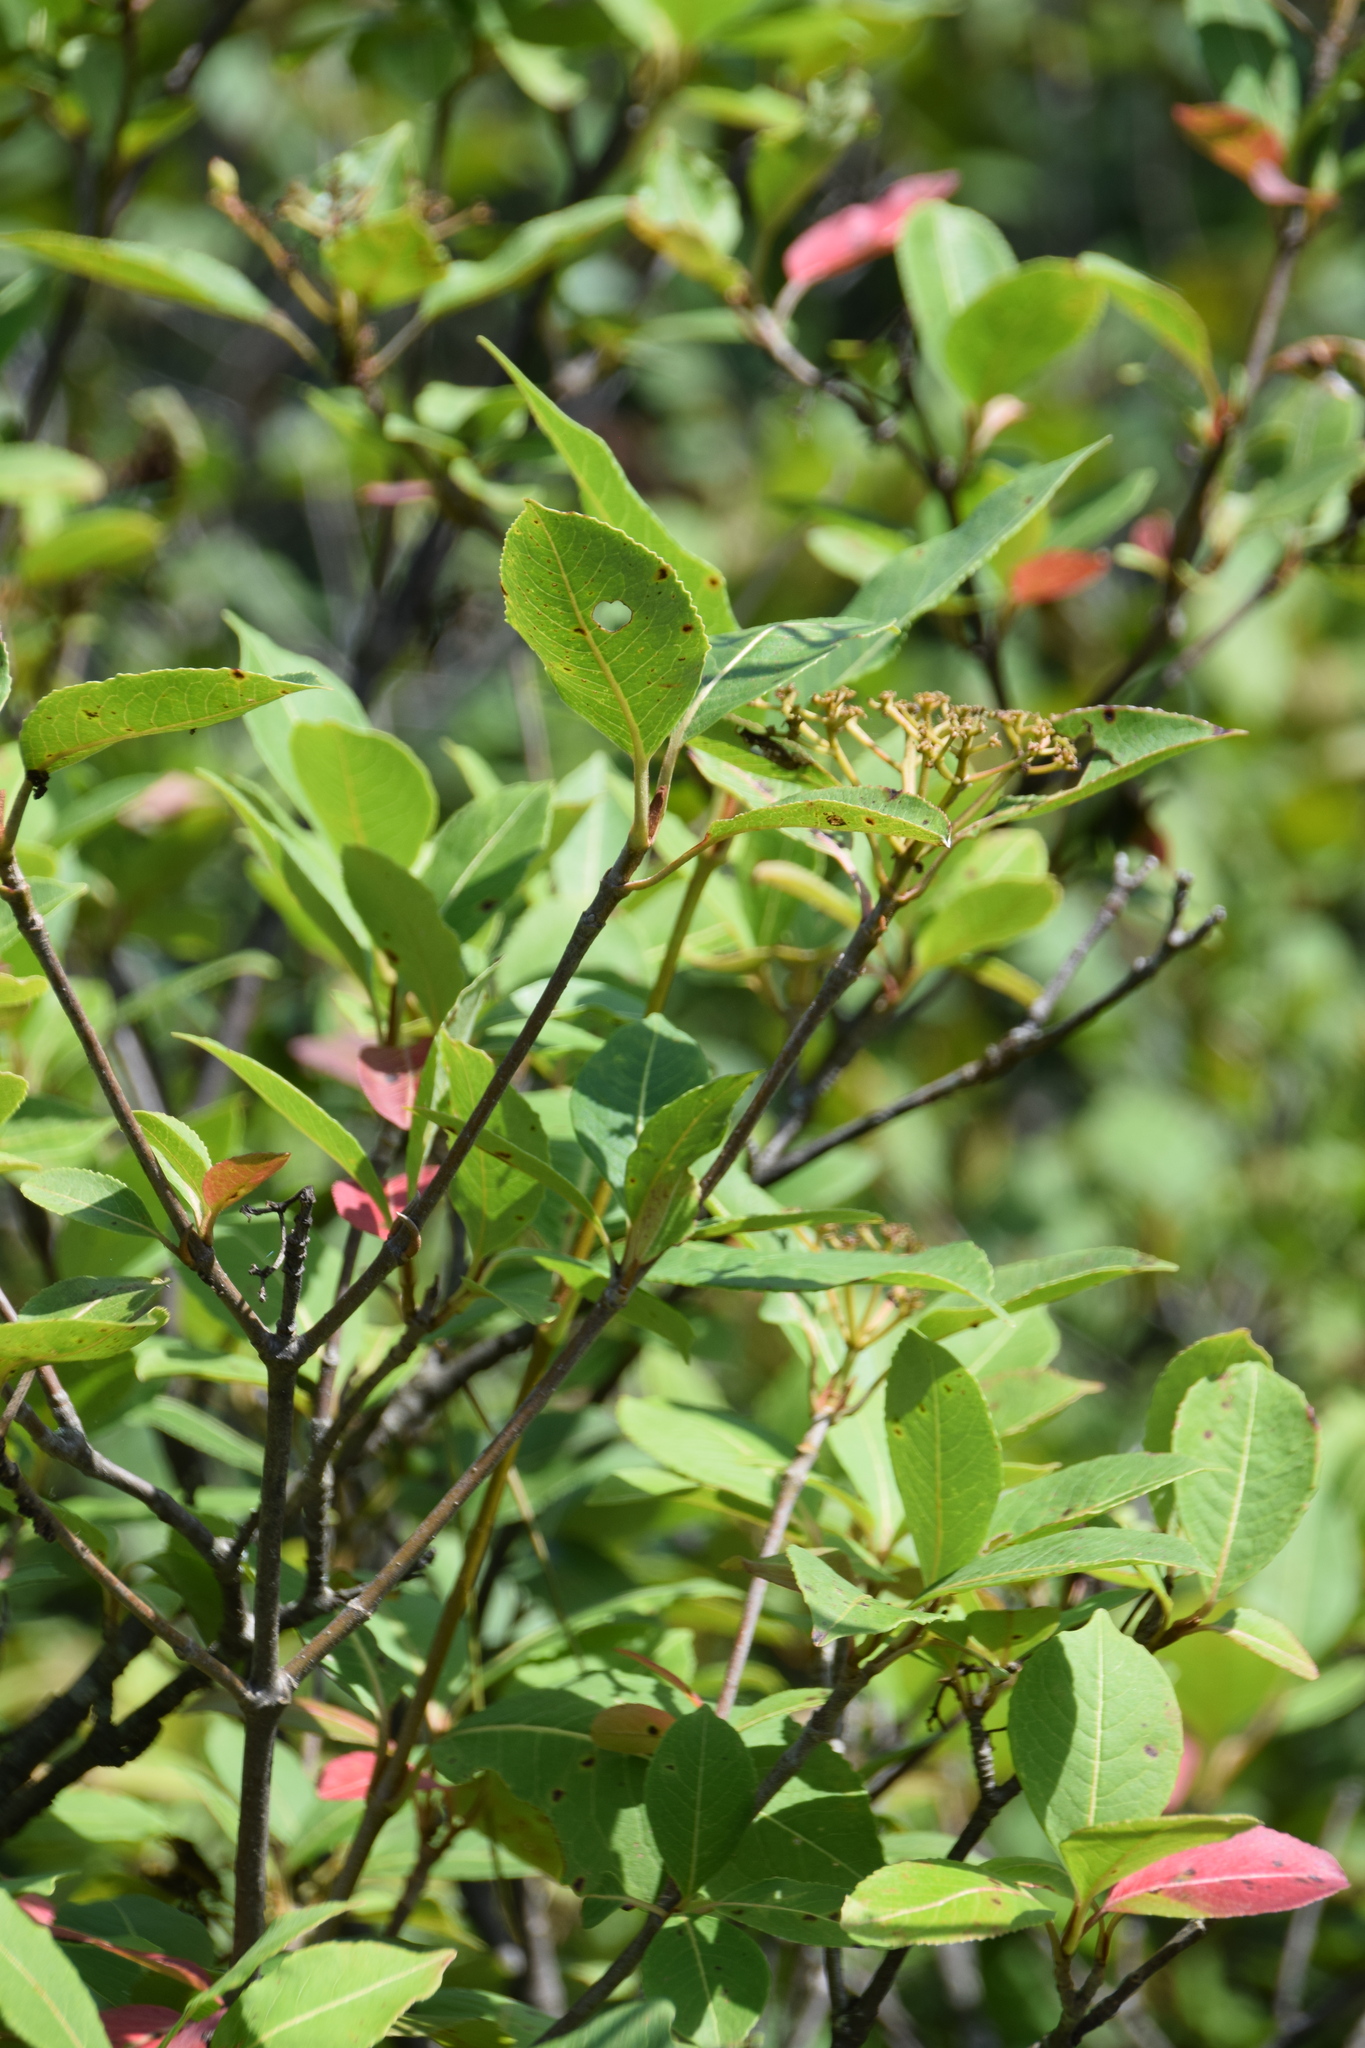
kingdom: Plantae
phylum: Tracheophyta
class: Magnoliopsida
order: Dipsacales
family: Viburnaceae
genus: Viburnum
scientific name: Viburnum cassinoides
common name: Swamp haw
